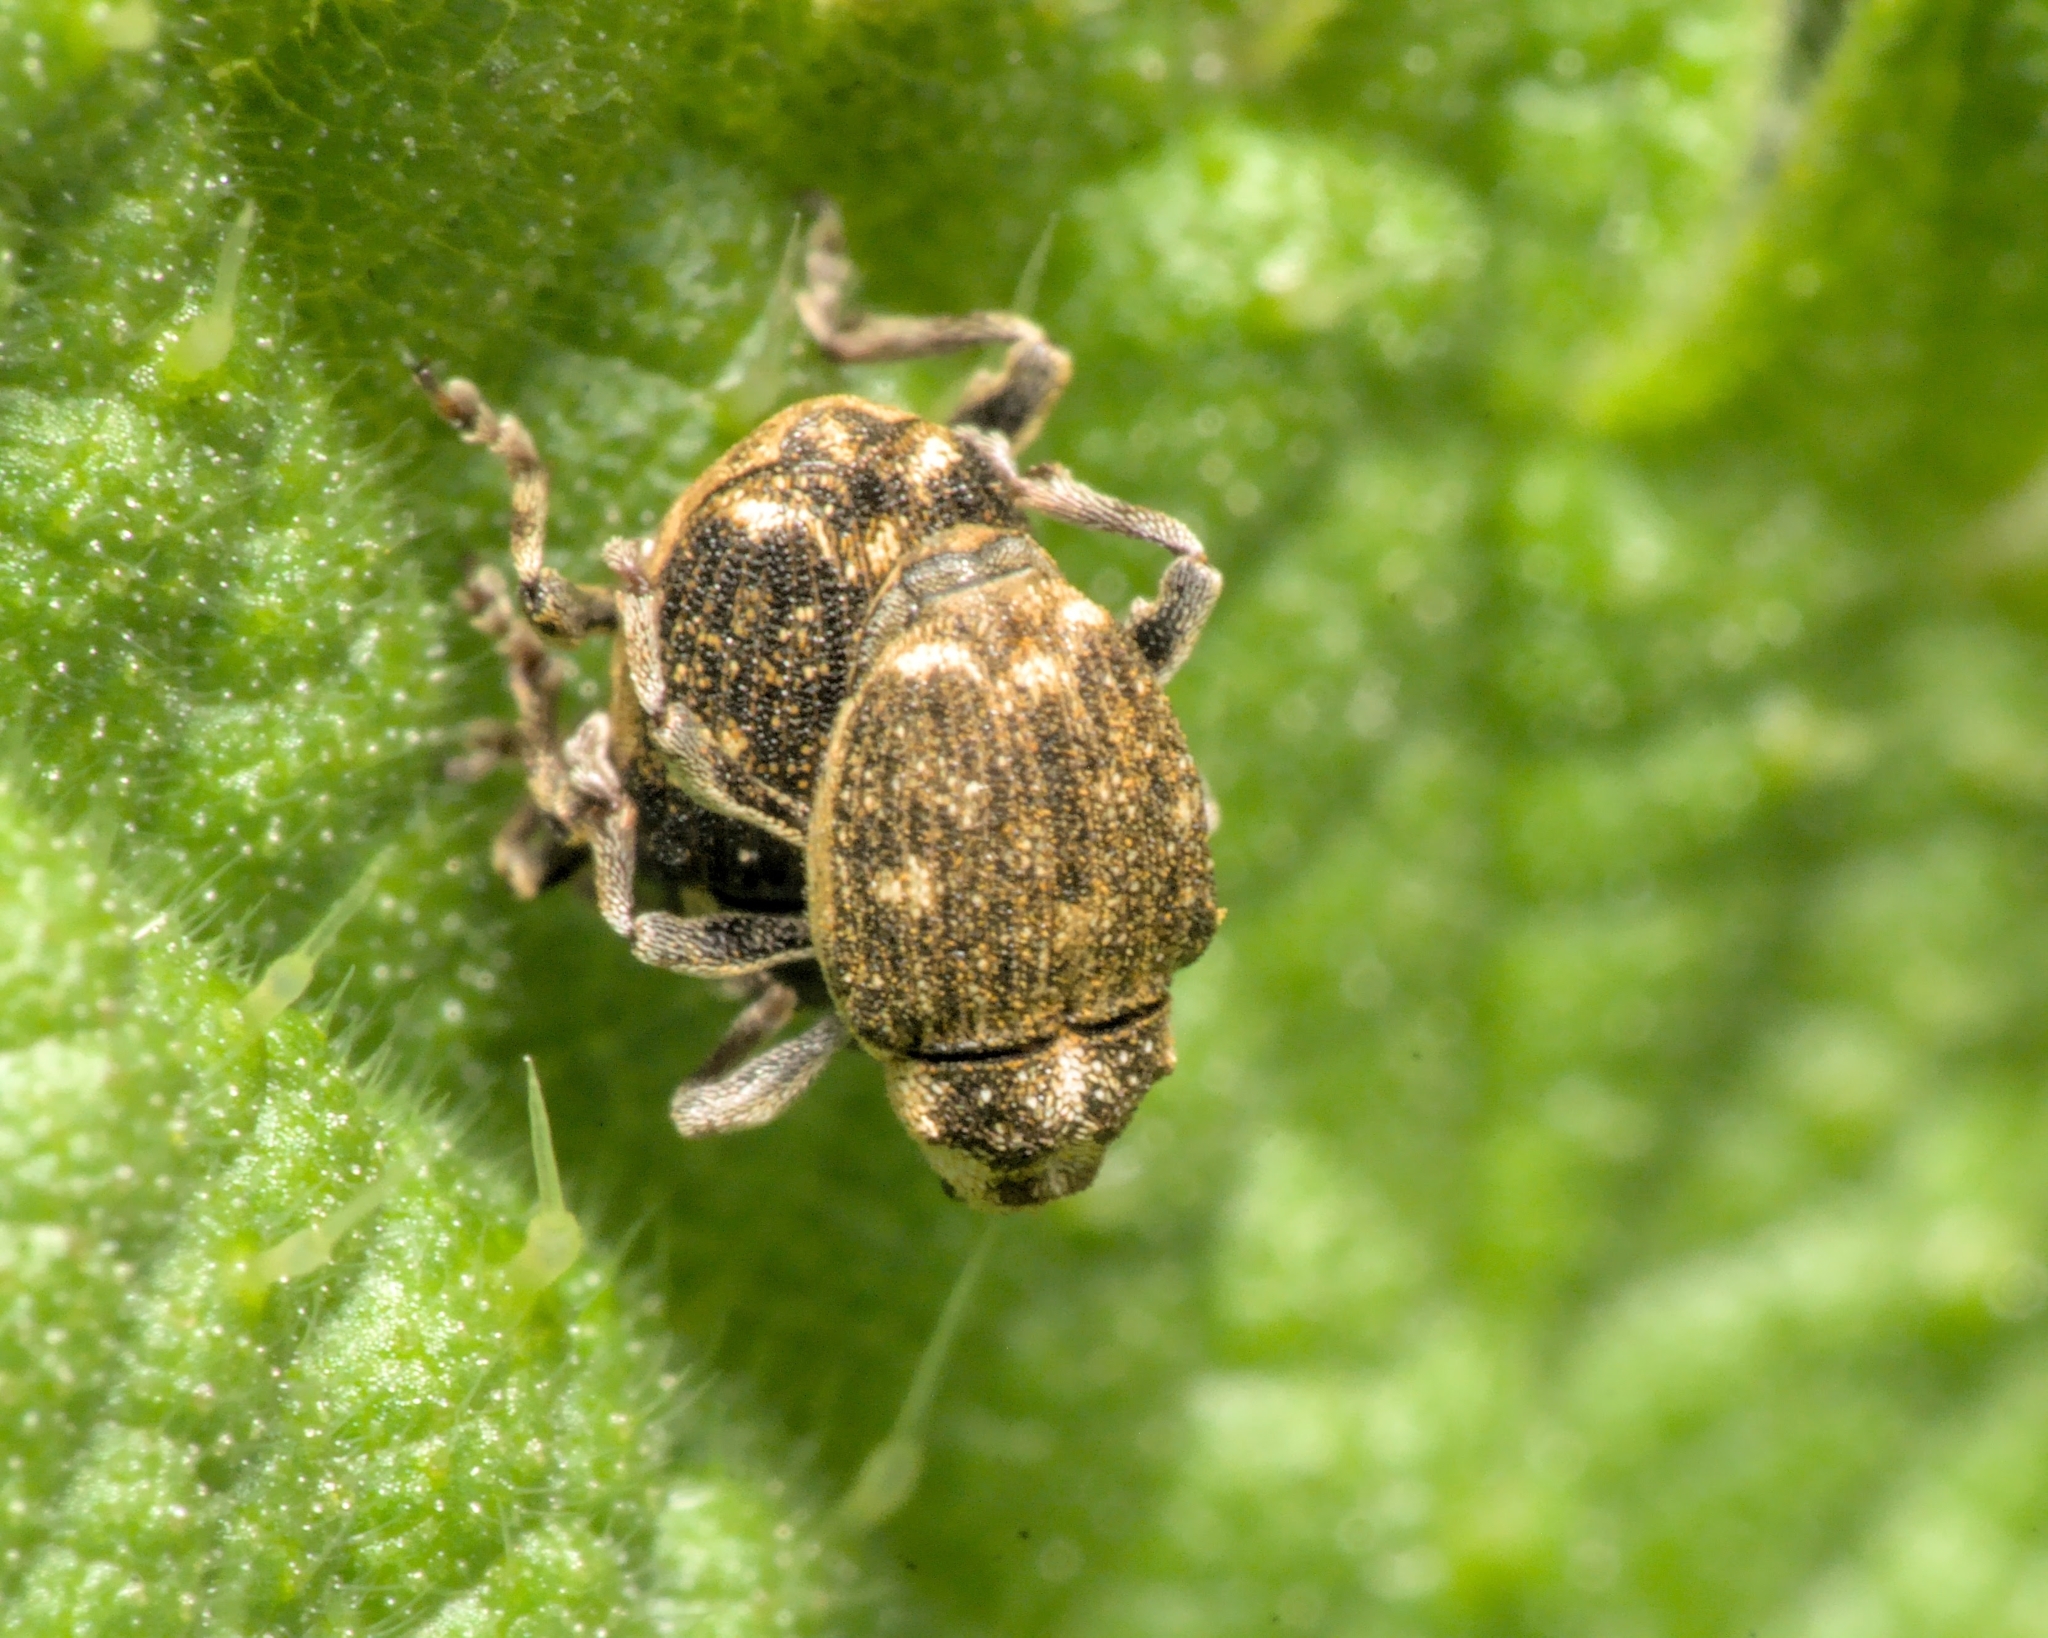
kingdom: Animalia
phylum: Arthropoda
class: Insecta
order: Coleoptera
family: Curculionidae
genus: Nedyus
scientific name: Nedyus quadrimaculatus
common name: Small nettle weevil
